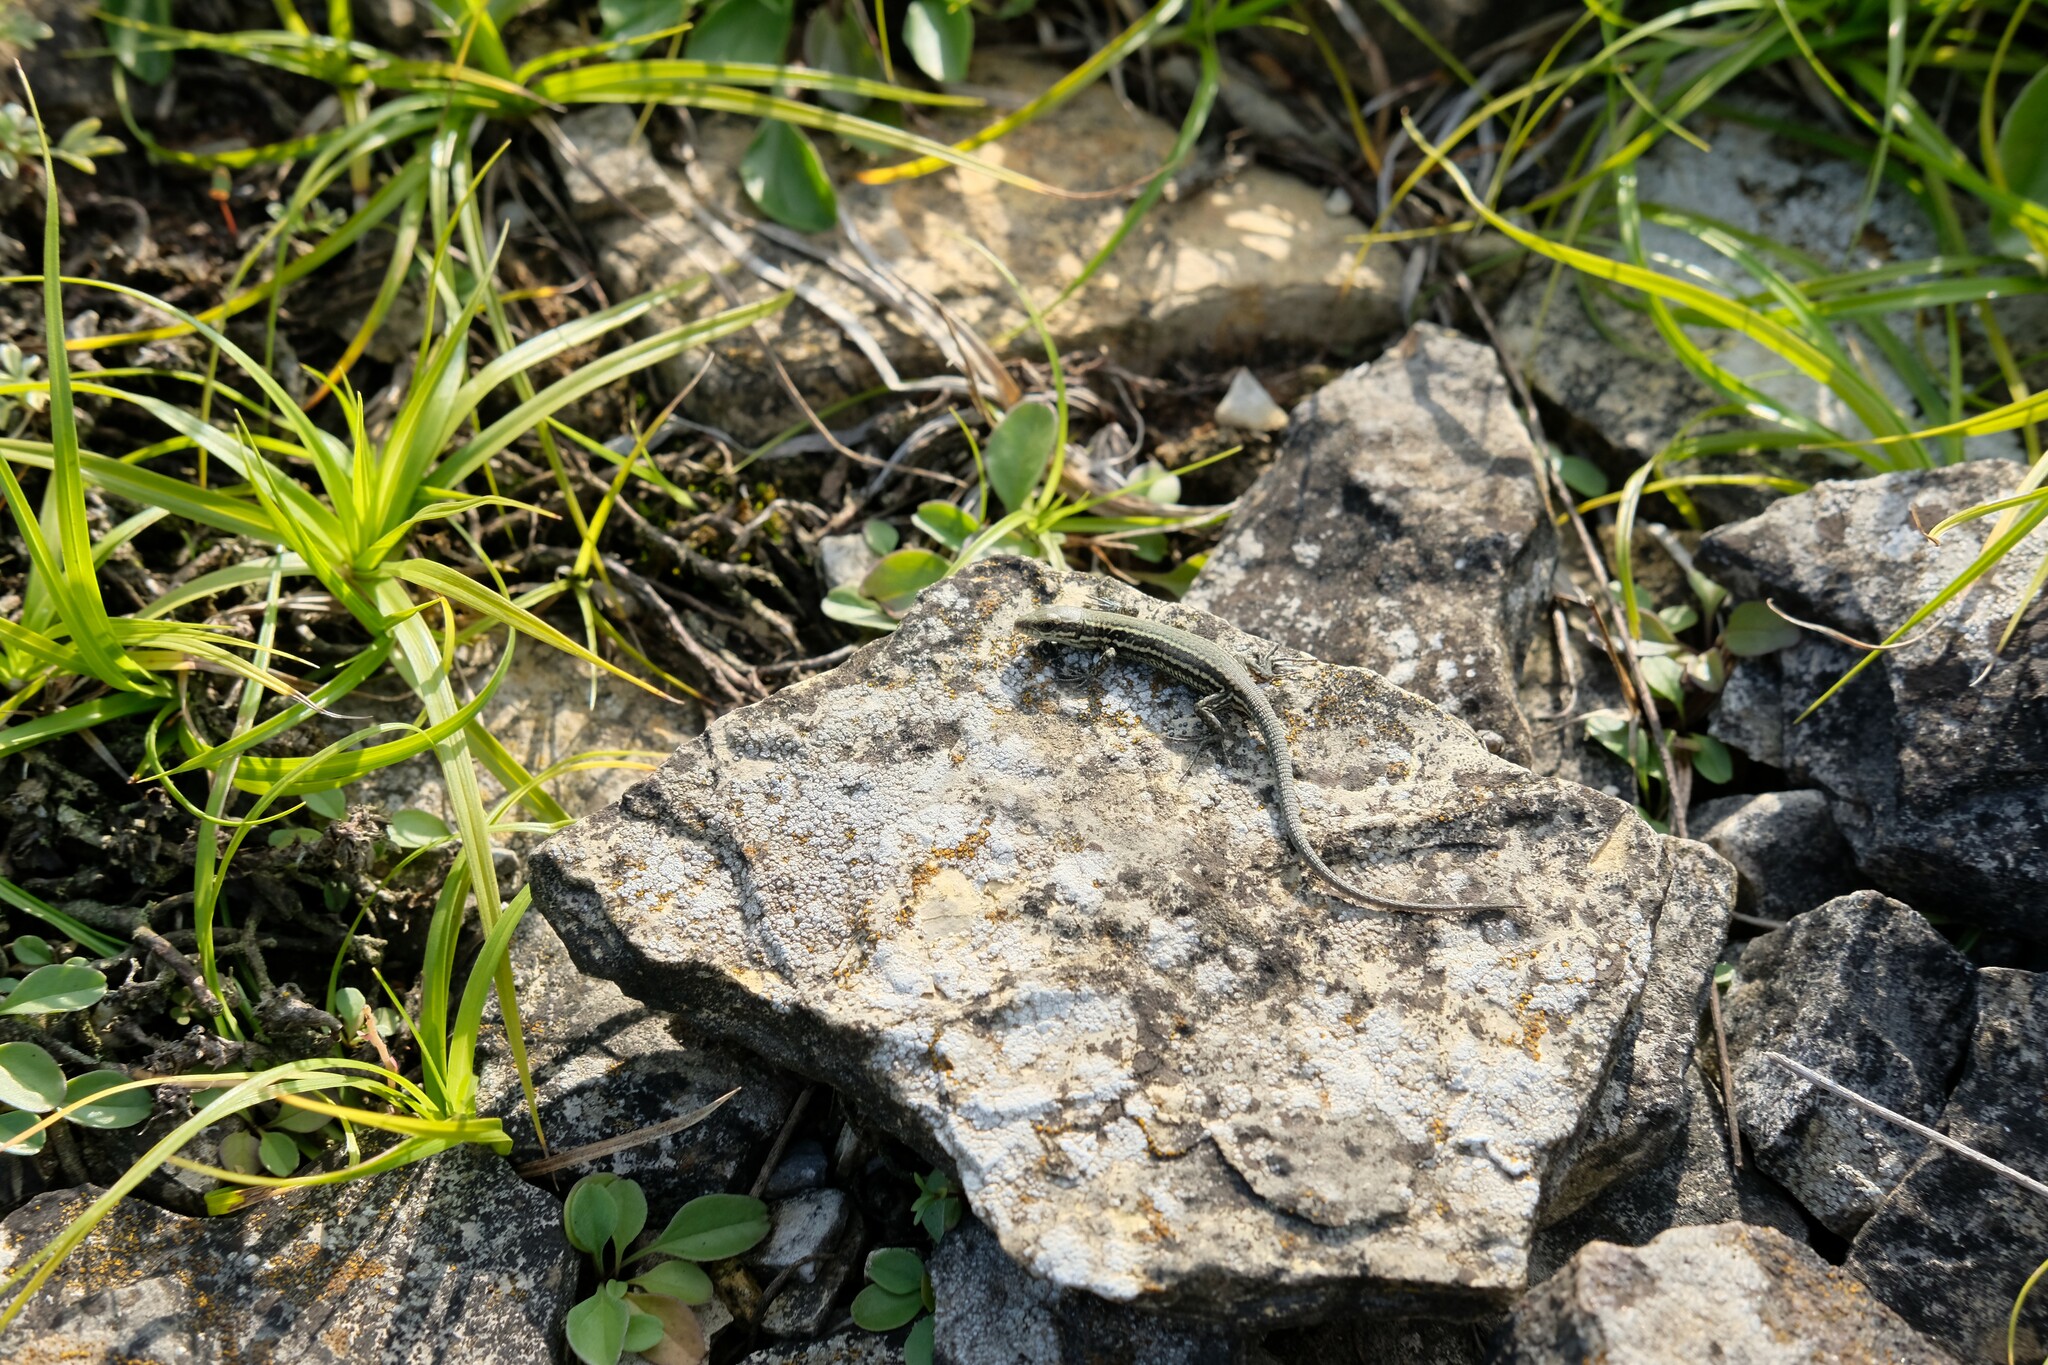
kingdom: Animalia
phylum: Chordata
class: Squamata
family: Lacertidae
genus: Podarcis
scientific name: Podarcis muralis
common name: Common wall lizard
